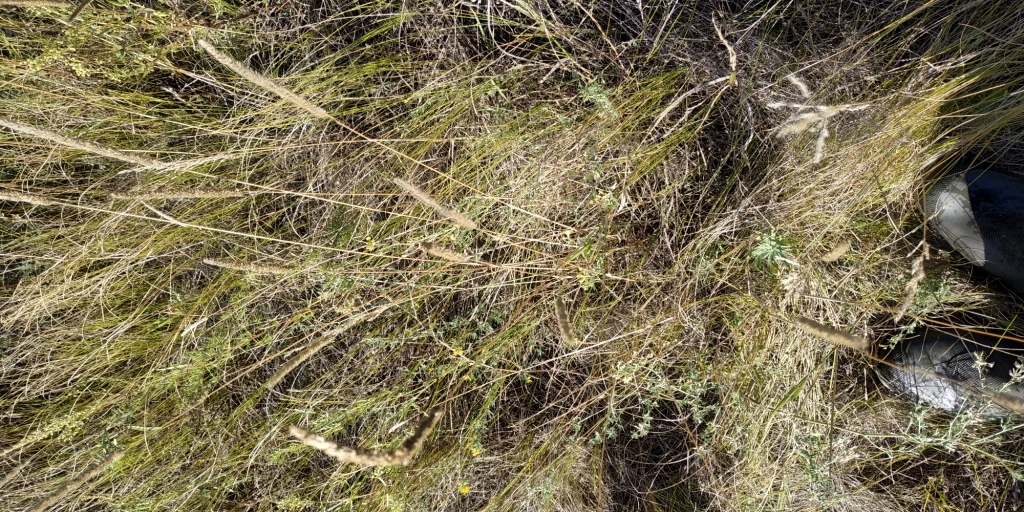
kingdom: Plantae
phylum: Tracheophyta
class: Liliopsida
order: Poales
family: Poaceae
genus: Phleum
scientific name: Phleum phleoides
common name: Purple-stem cat's-tail
